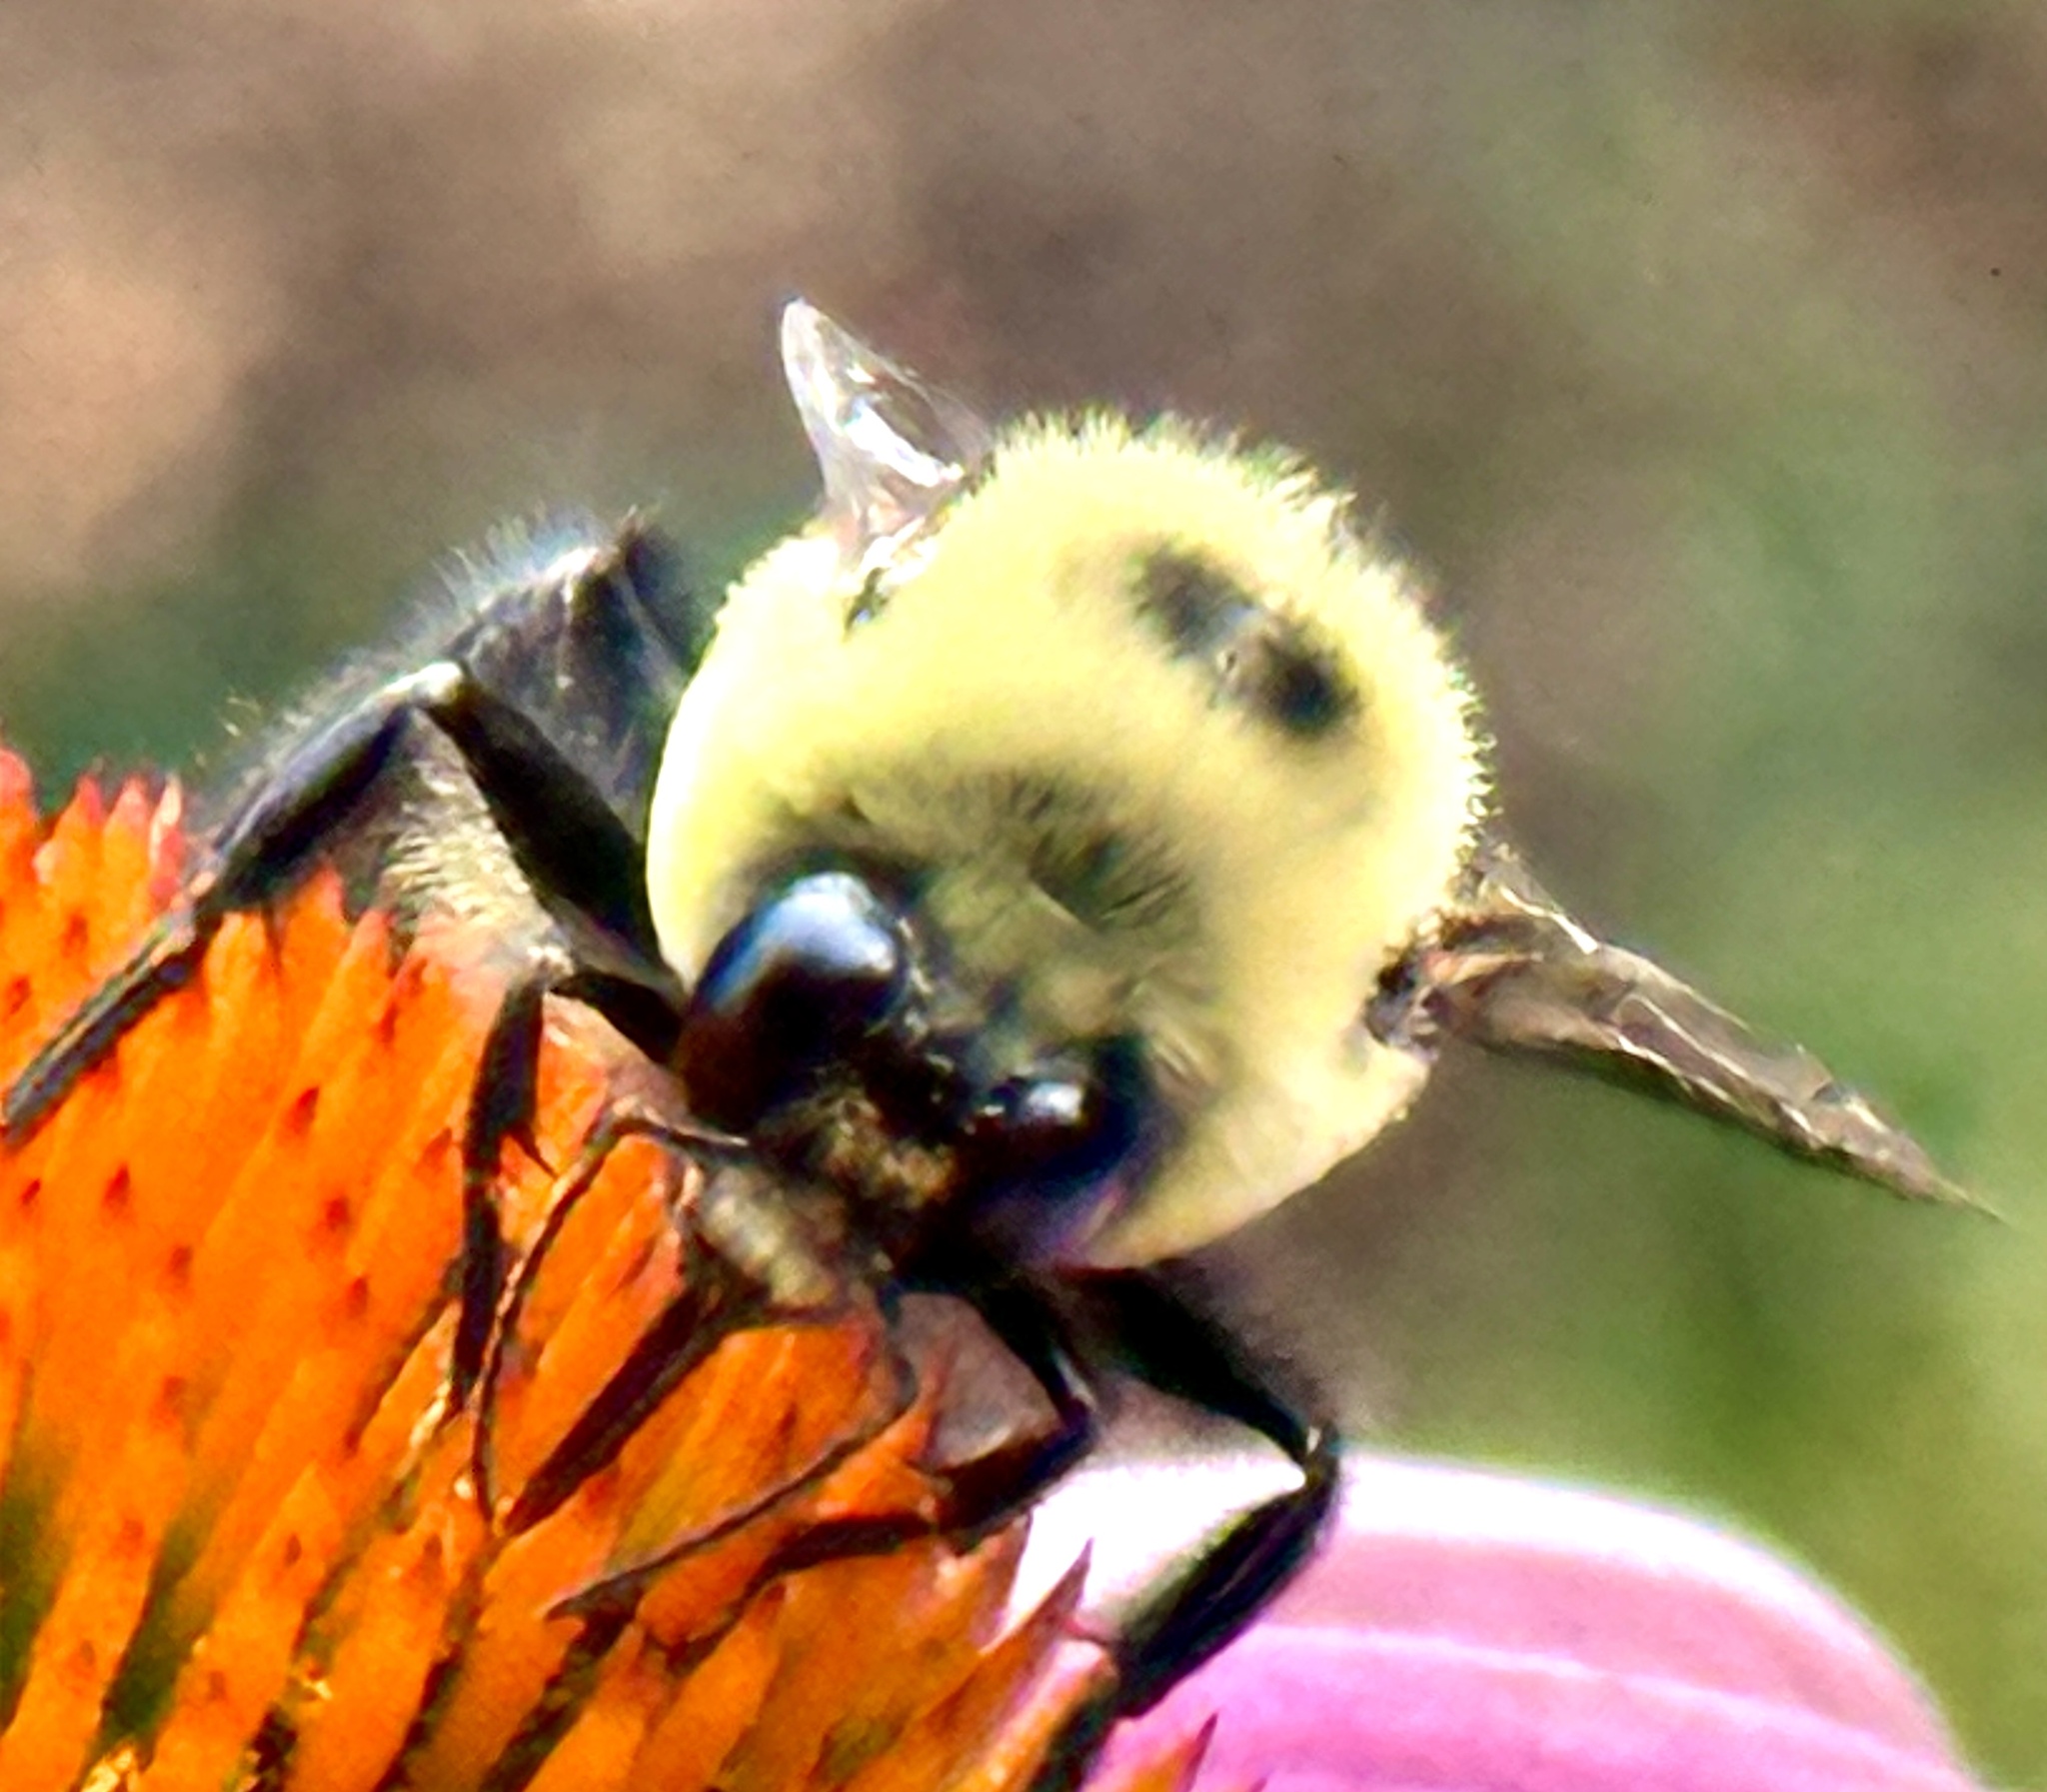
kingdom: Animalia
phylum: Arthropoda
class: Insecta
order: Hymenoptera
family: Apidae
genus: Bombus
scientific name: Bombus griseocollis
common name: Brown-belted bumble bee
